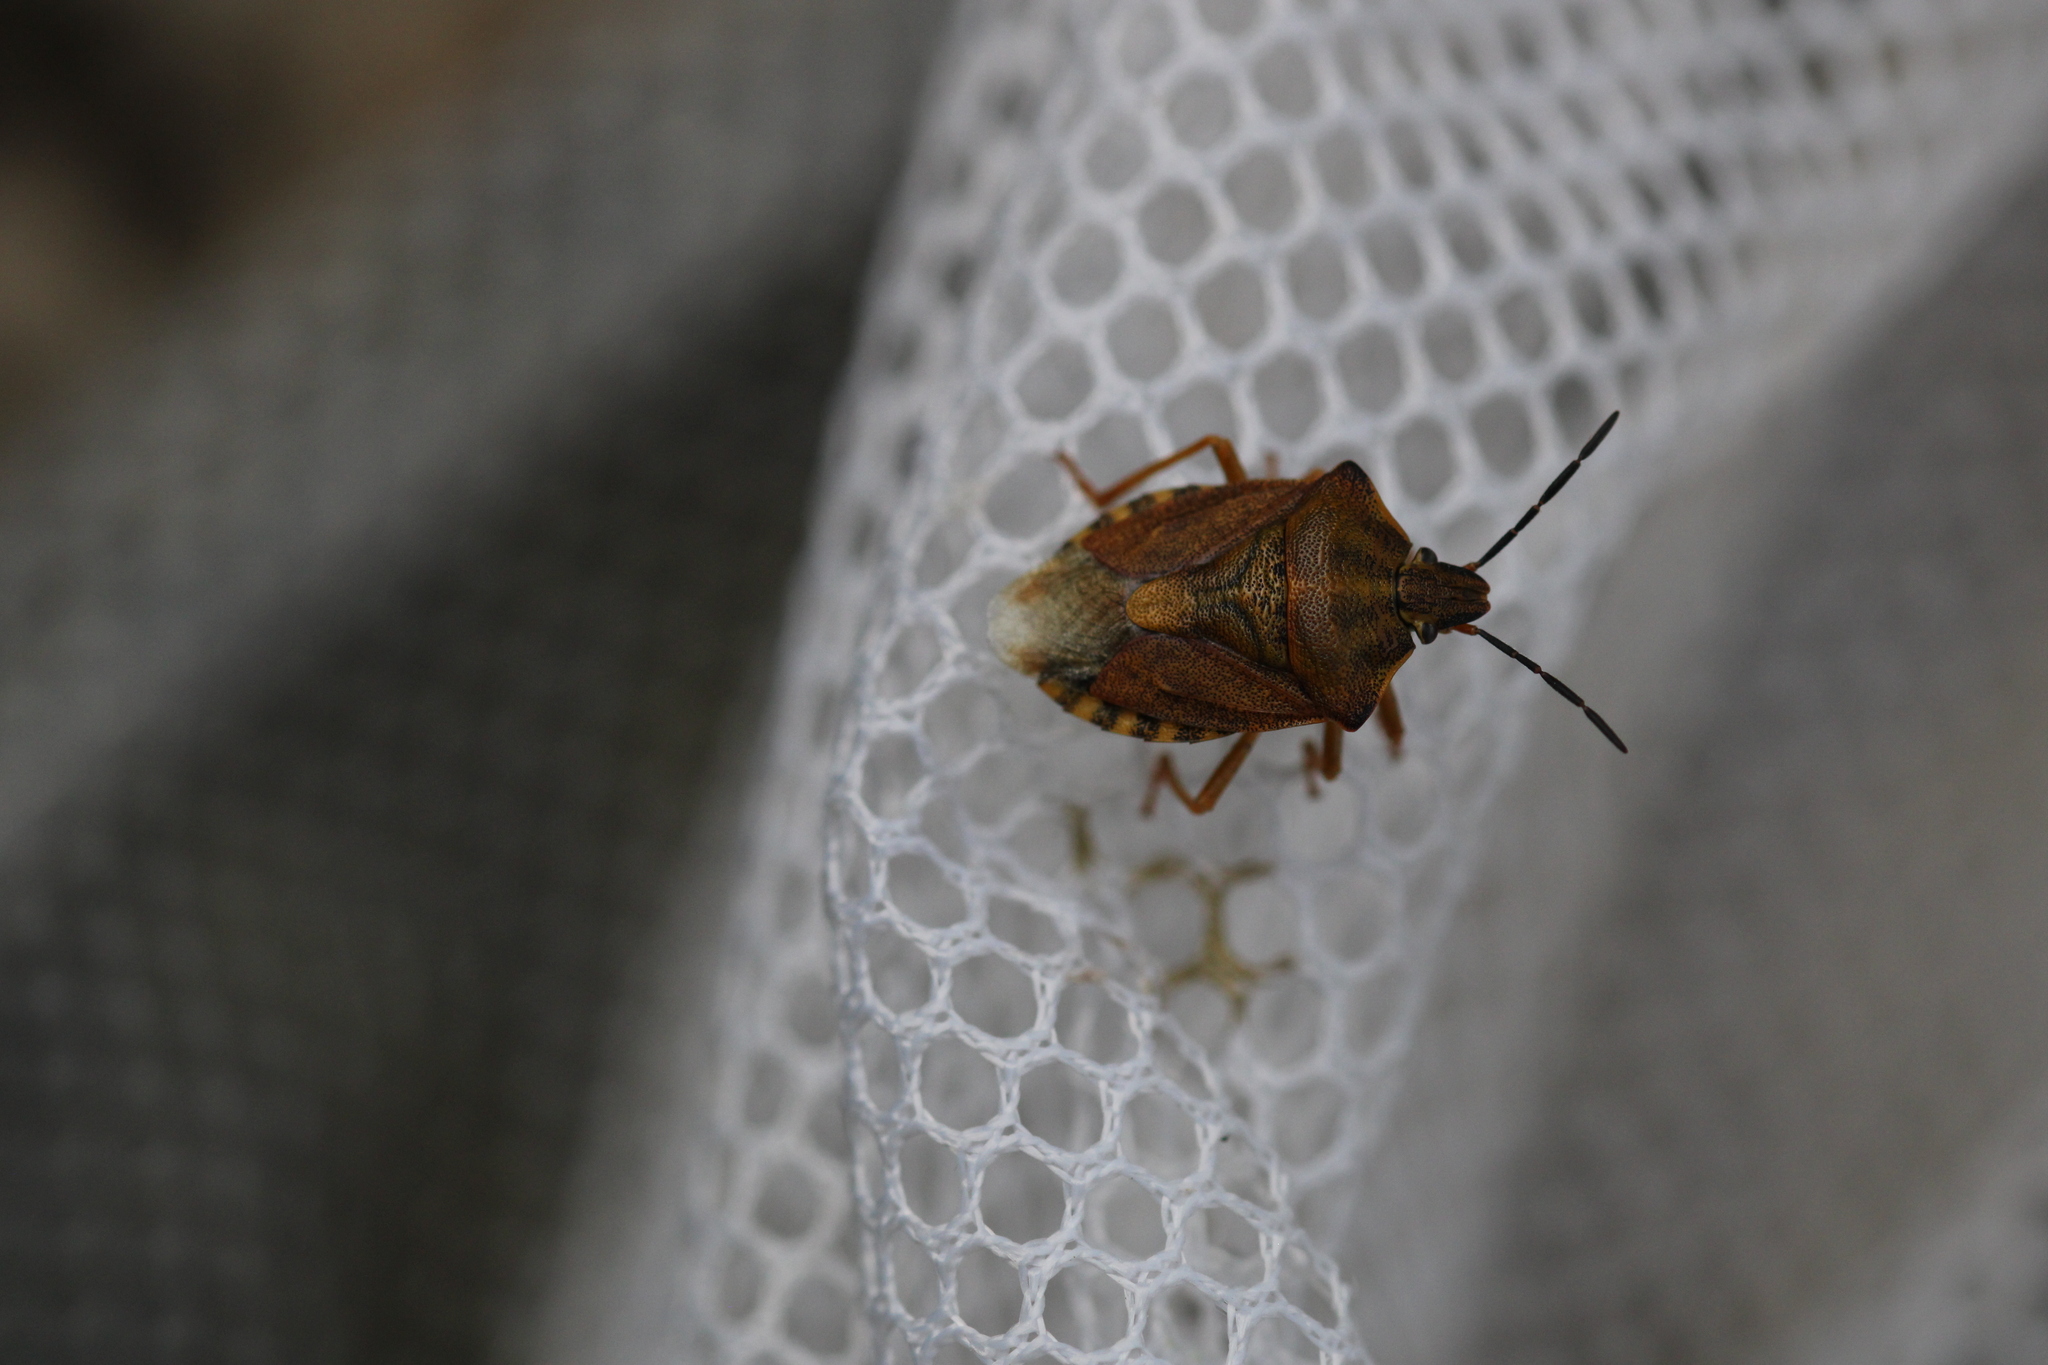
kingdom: Animalia
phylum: Arthropoda
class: Insecta
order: Hemiptera
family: Pentatomidae
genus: Carpocoris
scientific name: Carpocoris purpureipennis
